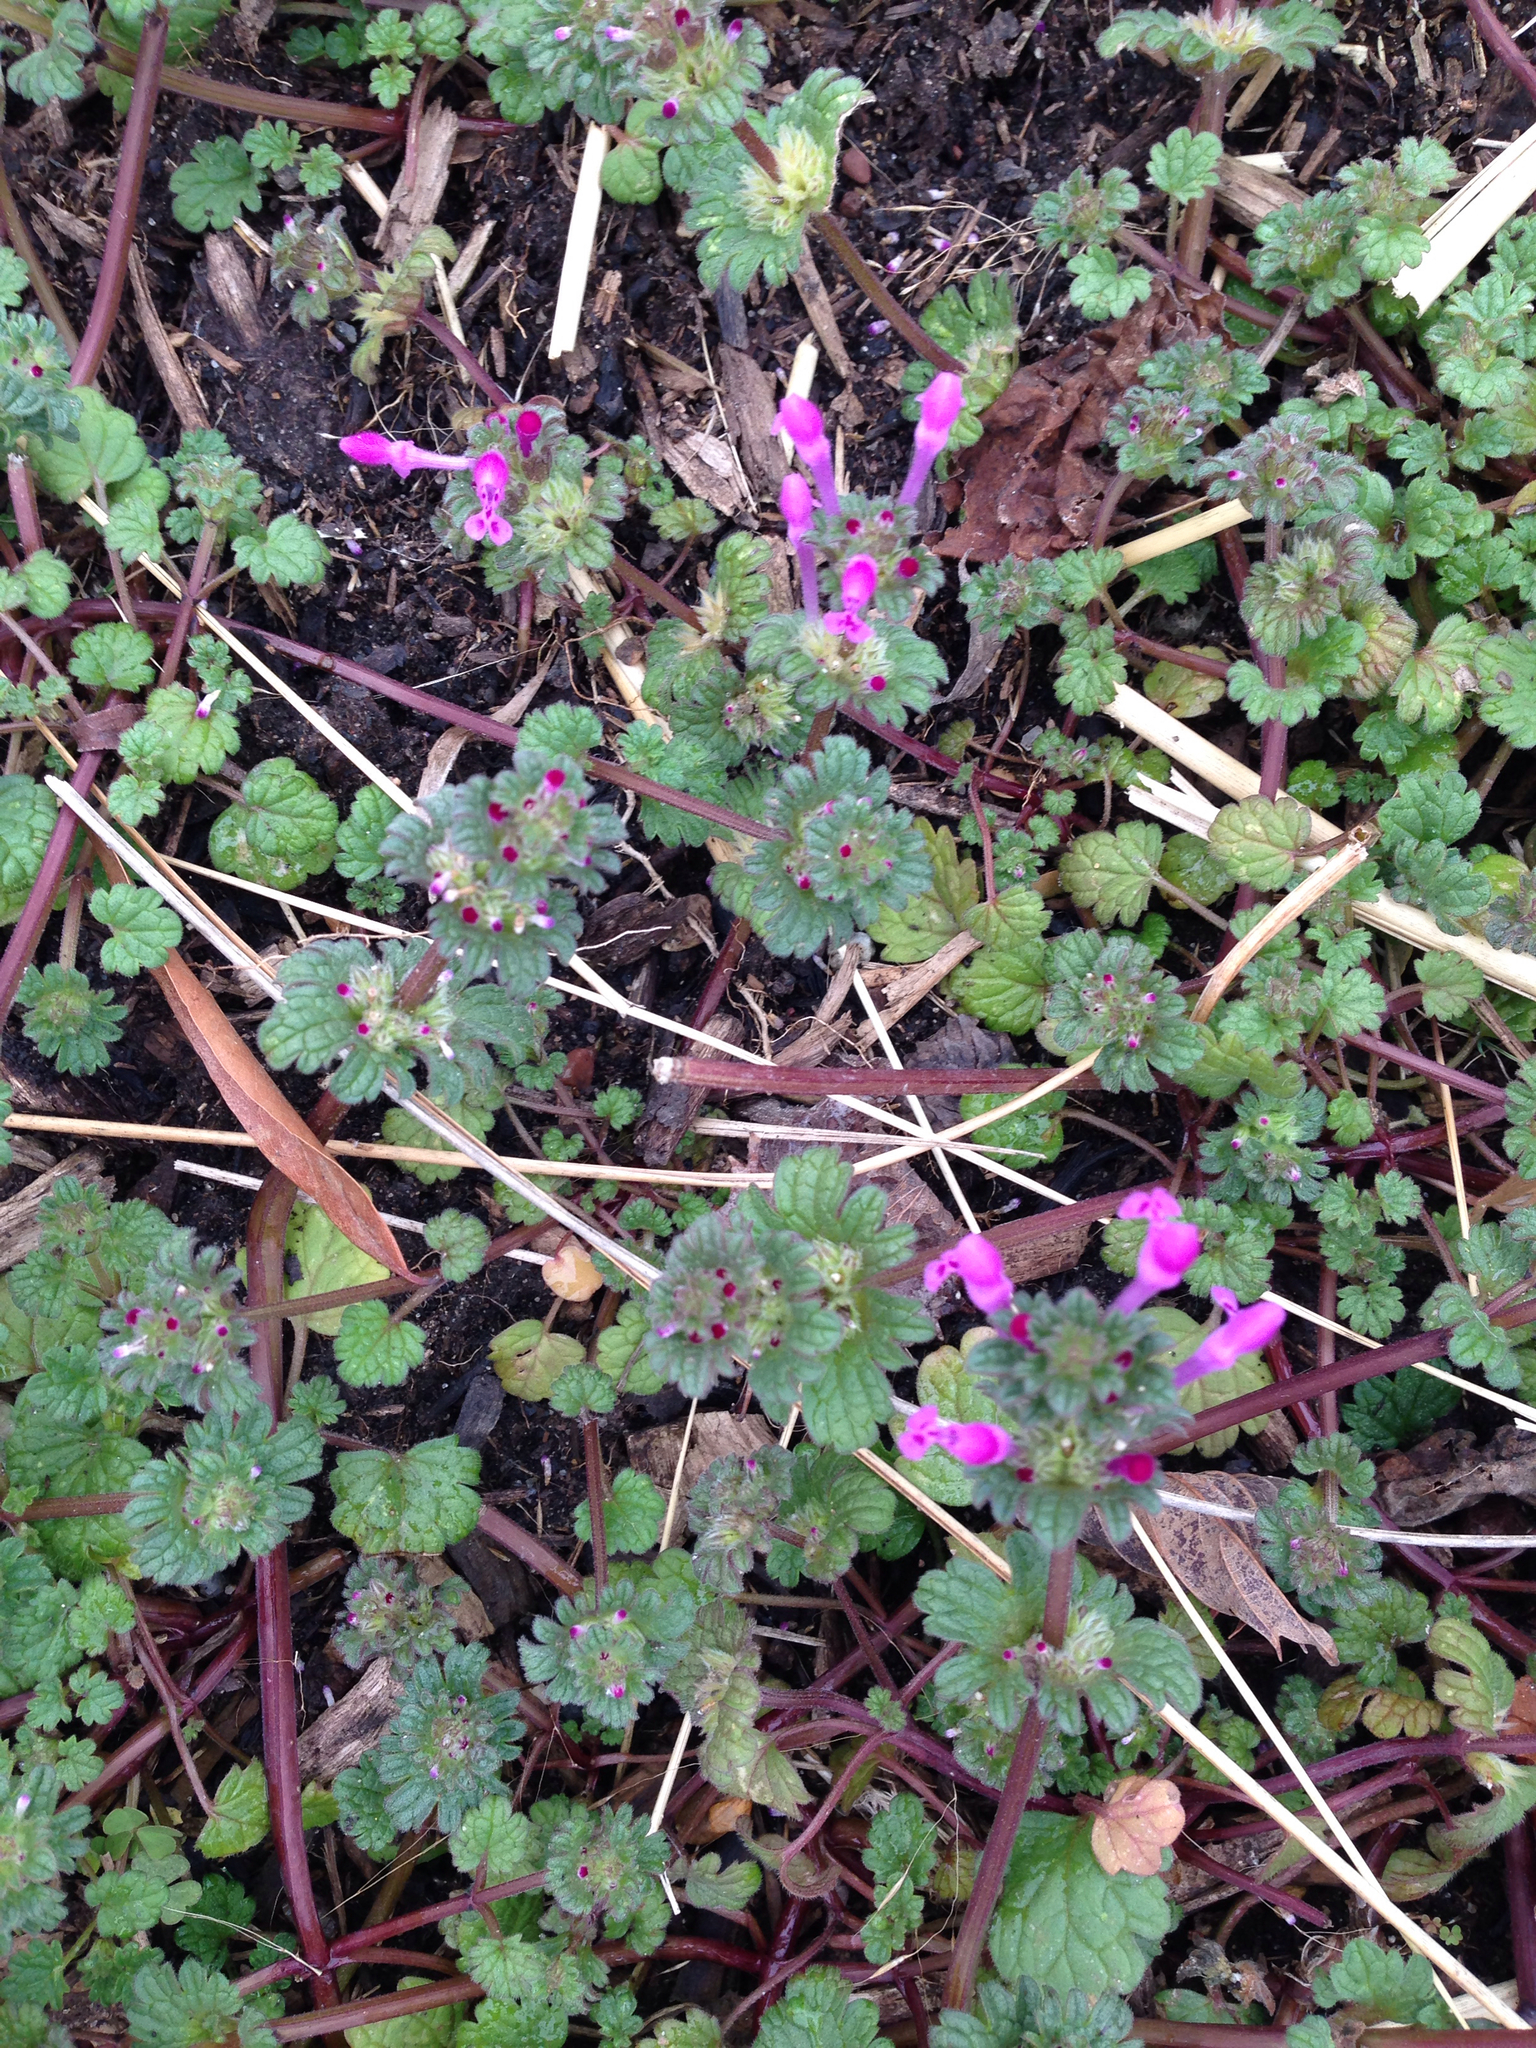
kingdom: Plantae
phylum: Tracheophyta
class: Magnoliopsida
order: Lamiales
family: Lamiaceae
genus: Lamium
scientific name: Lamium amplexicaule
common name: Henbit dead-nettle
